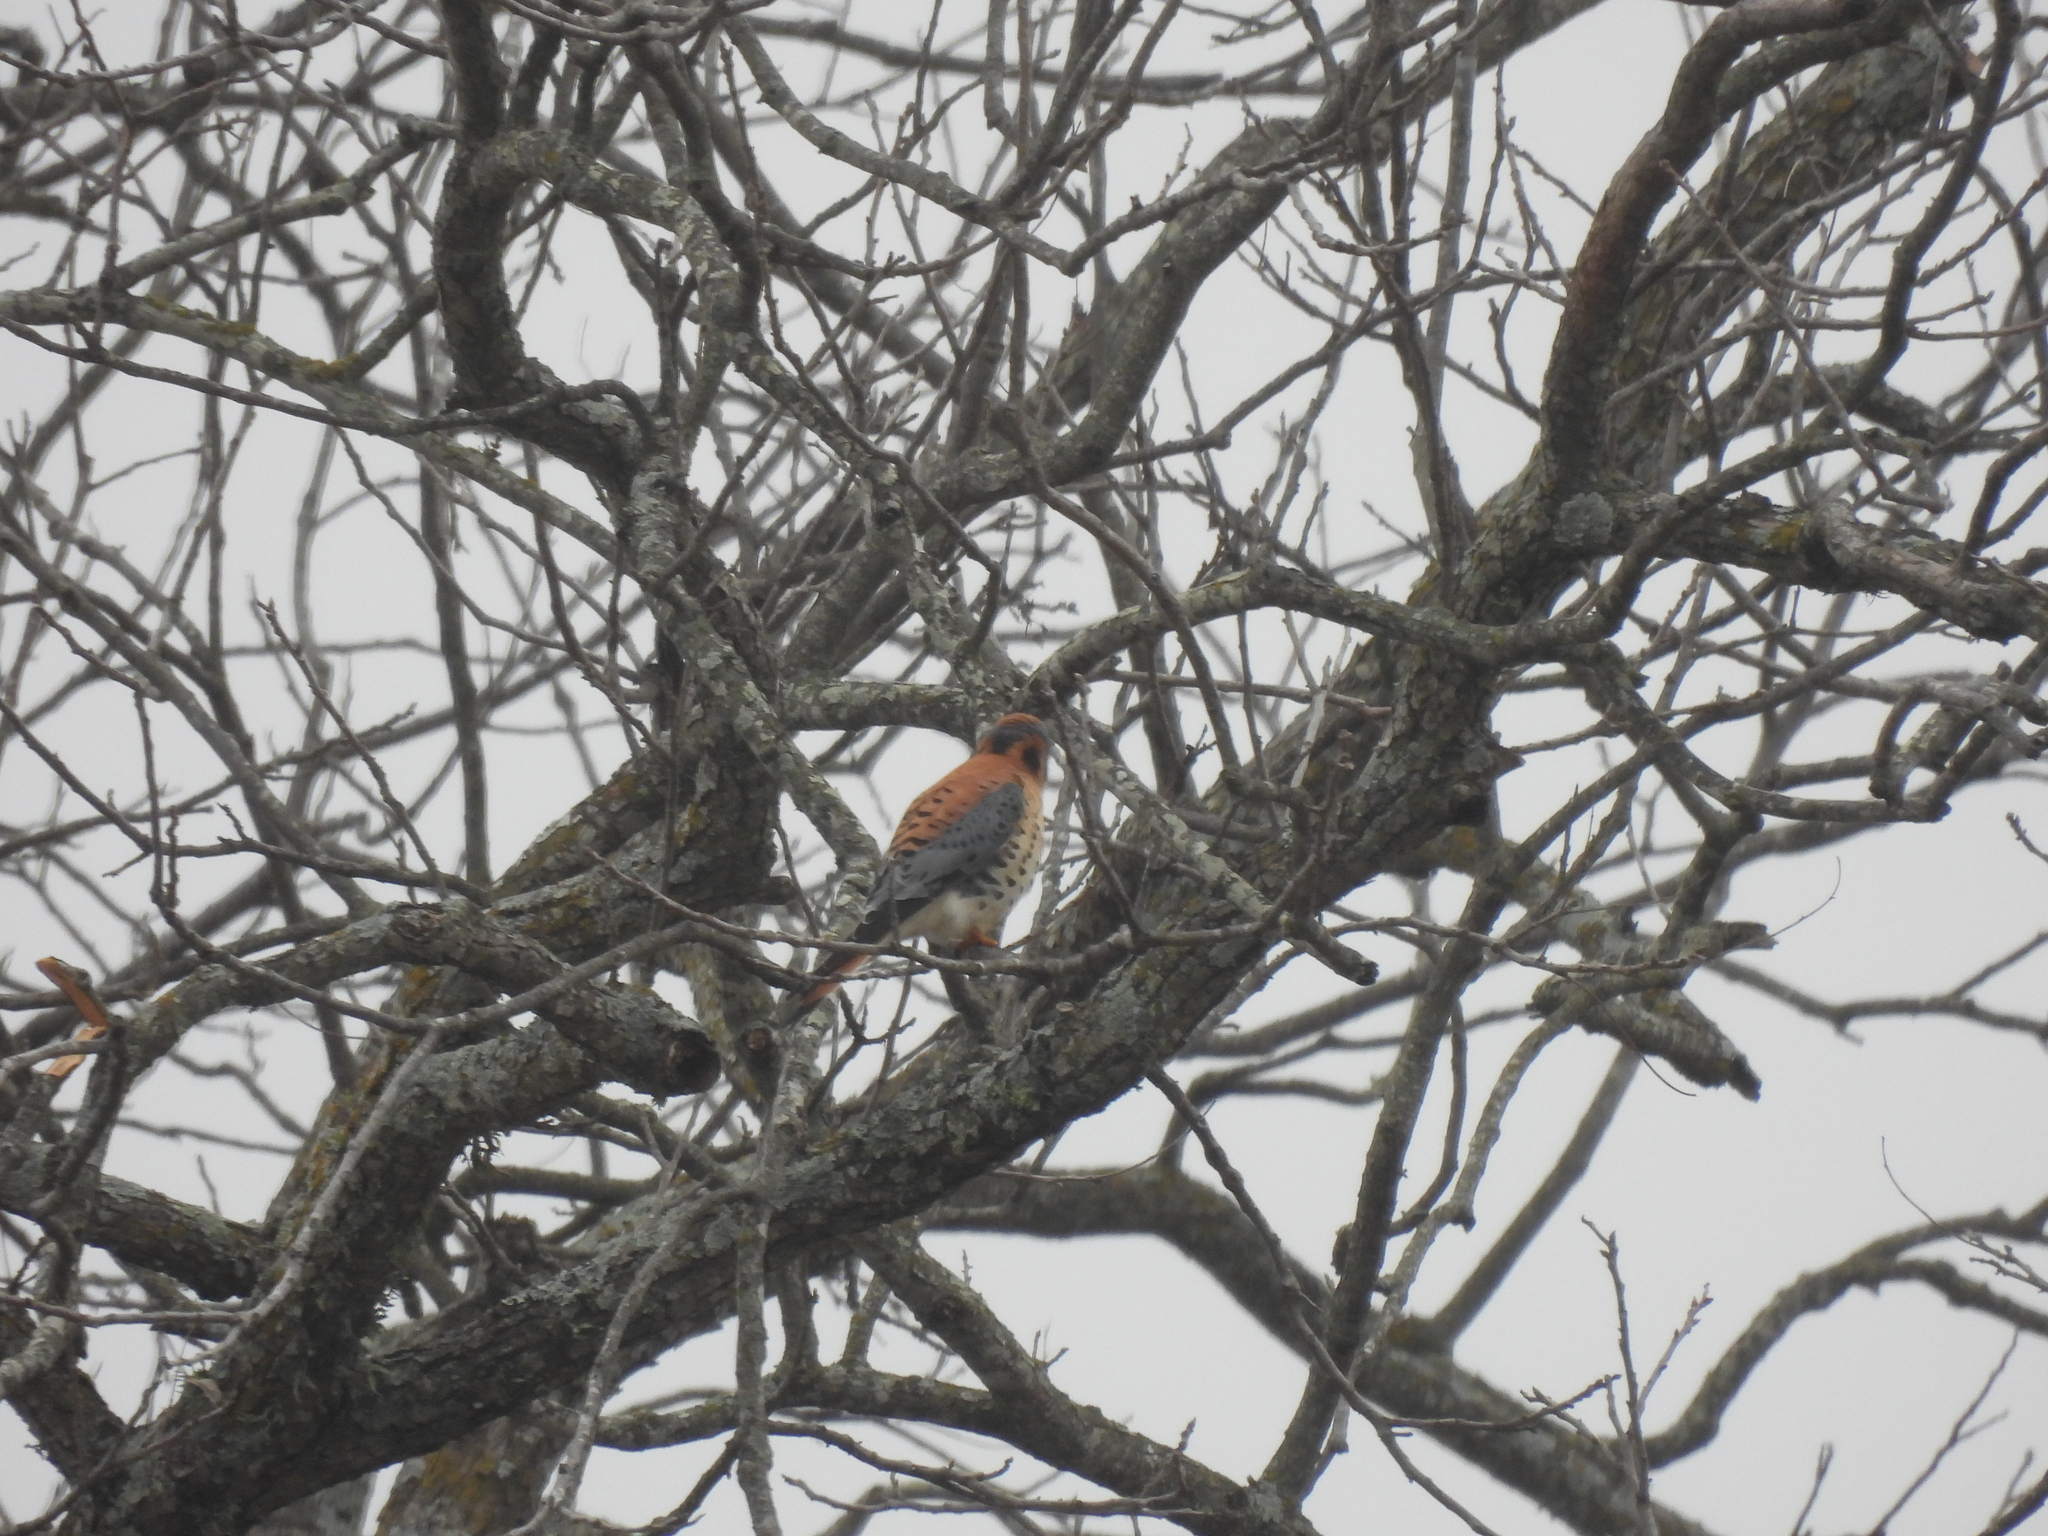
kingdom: Animalia
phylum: Chordata
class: Aves
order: Falconiformes
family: Falconidae
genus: Falco
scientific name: Falco sparverius
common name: American kestrel
